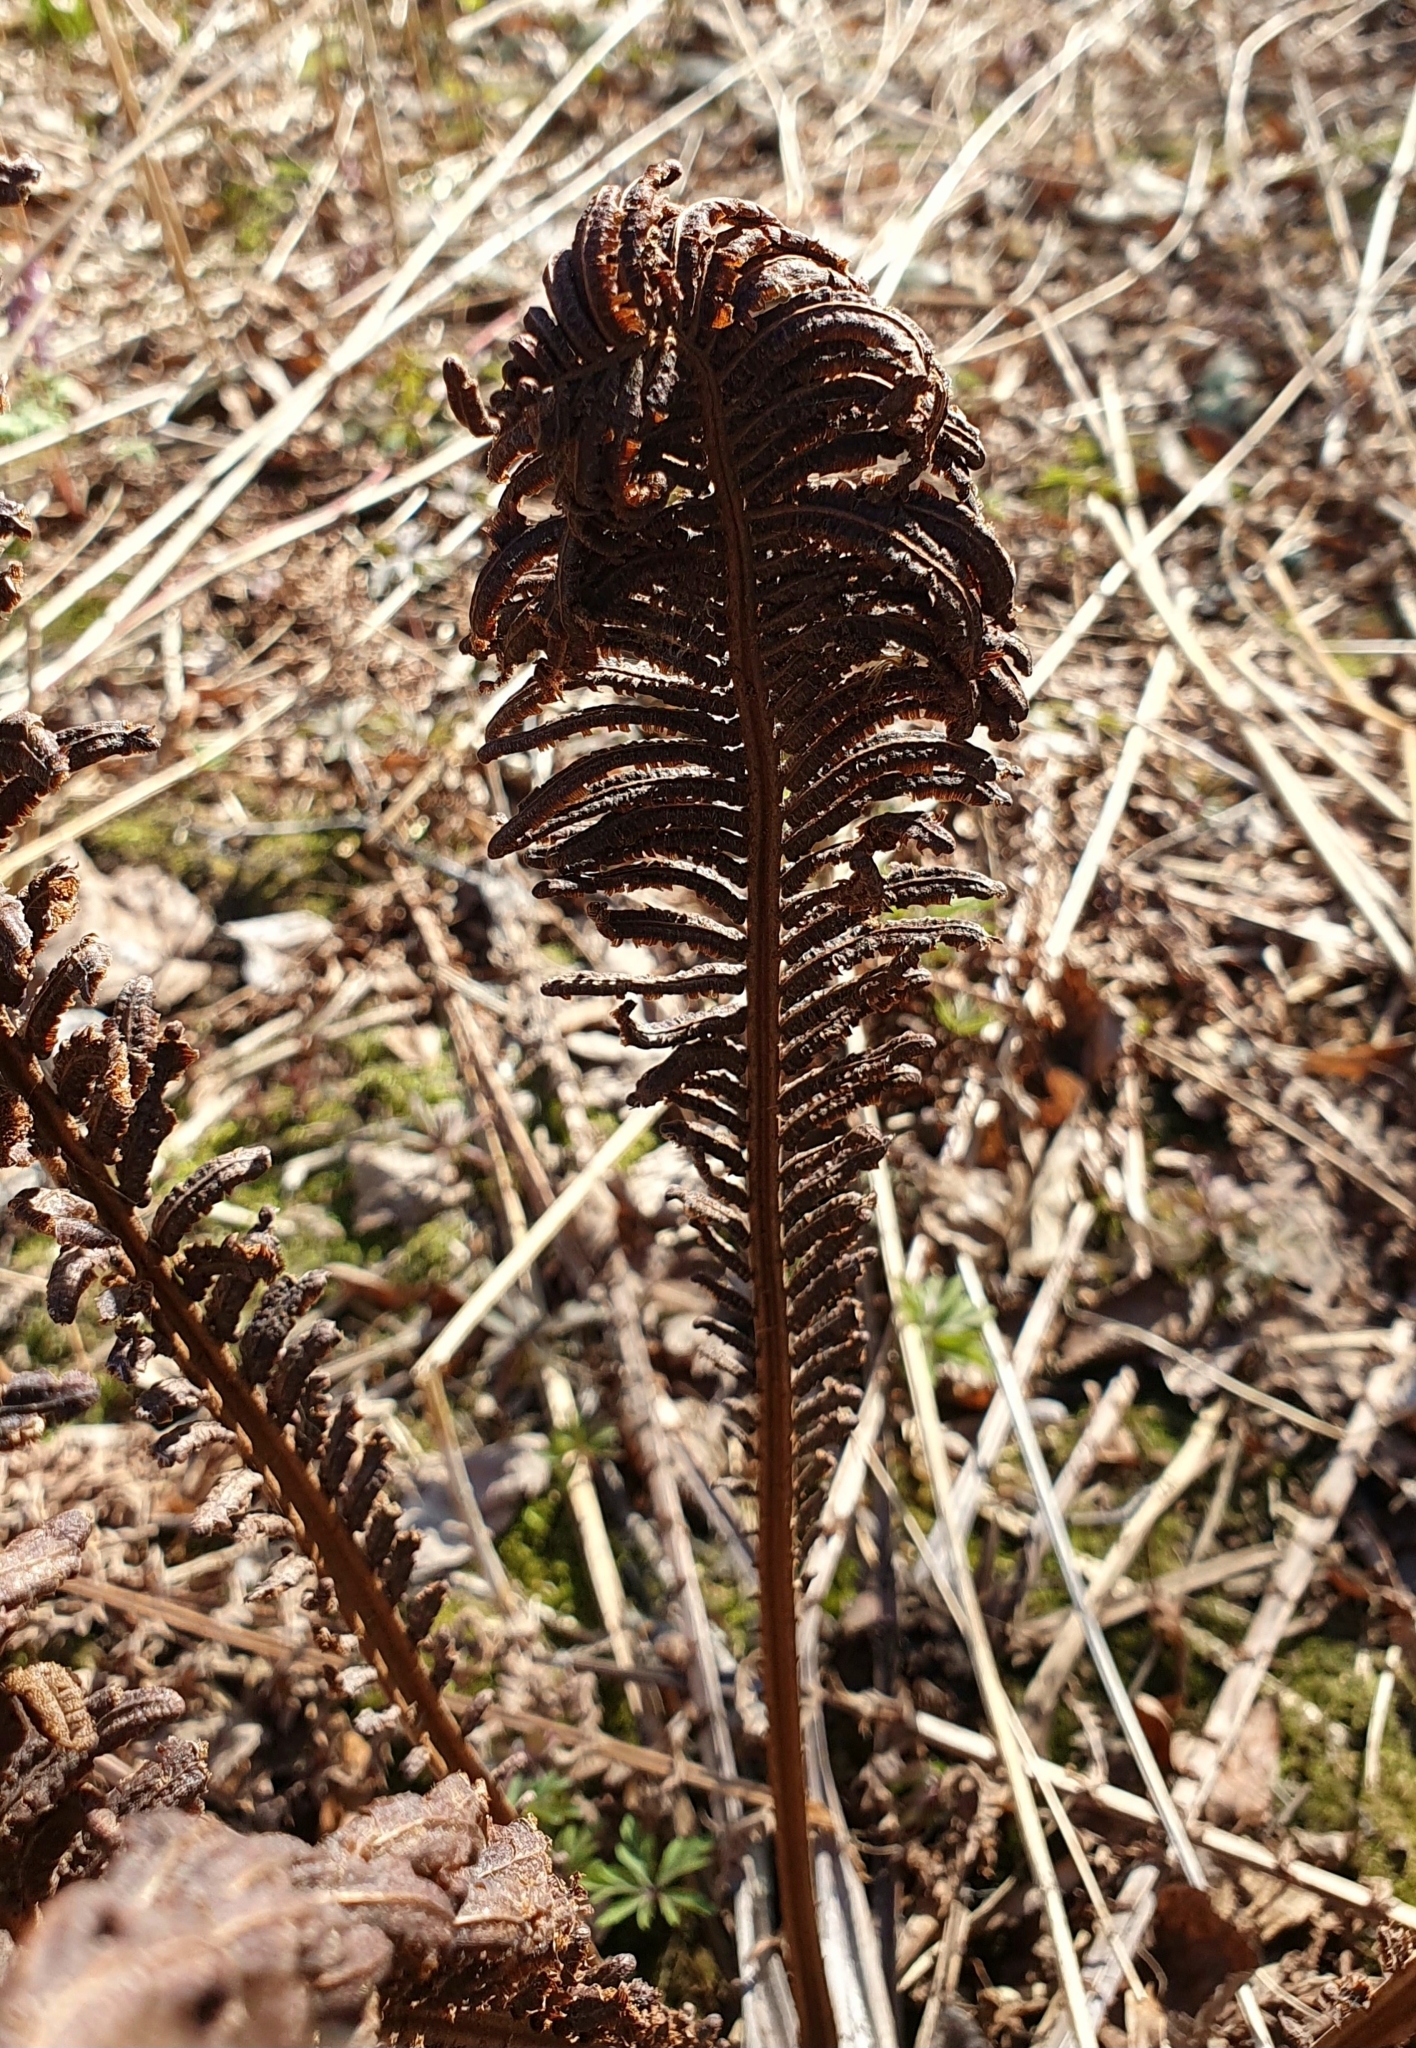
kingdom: Plantae
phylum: Tracheophyta
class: Polypodiopsida
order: Polypodiales
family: Onocleaceae
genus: Matteuccia
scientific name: Matteuccia struthiopteris
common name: Ostrich fern
